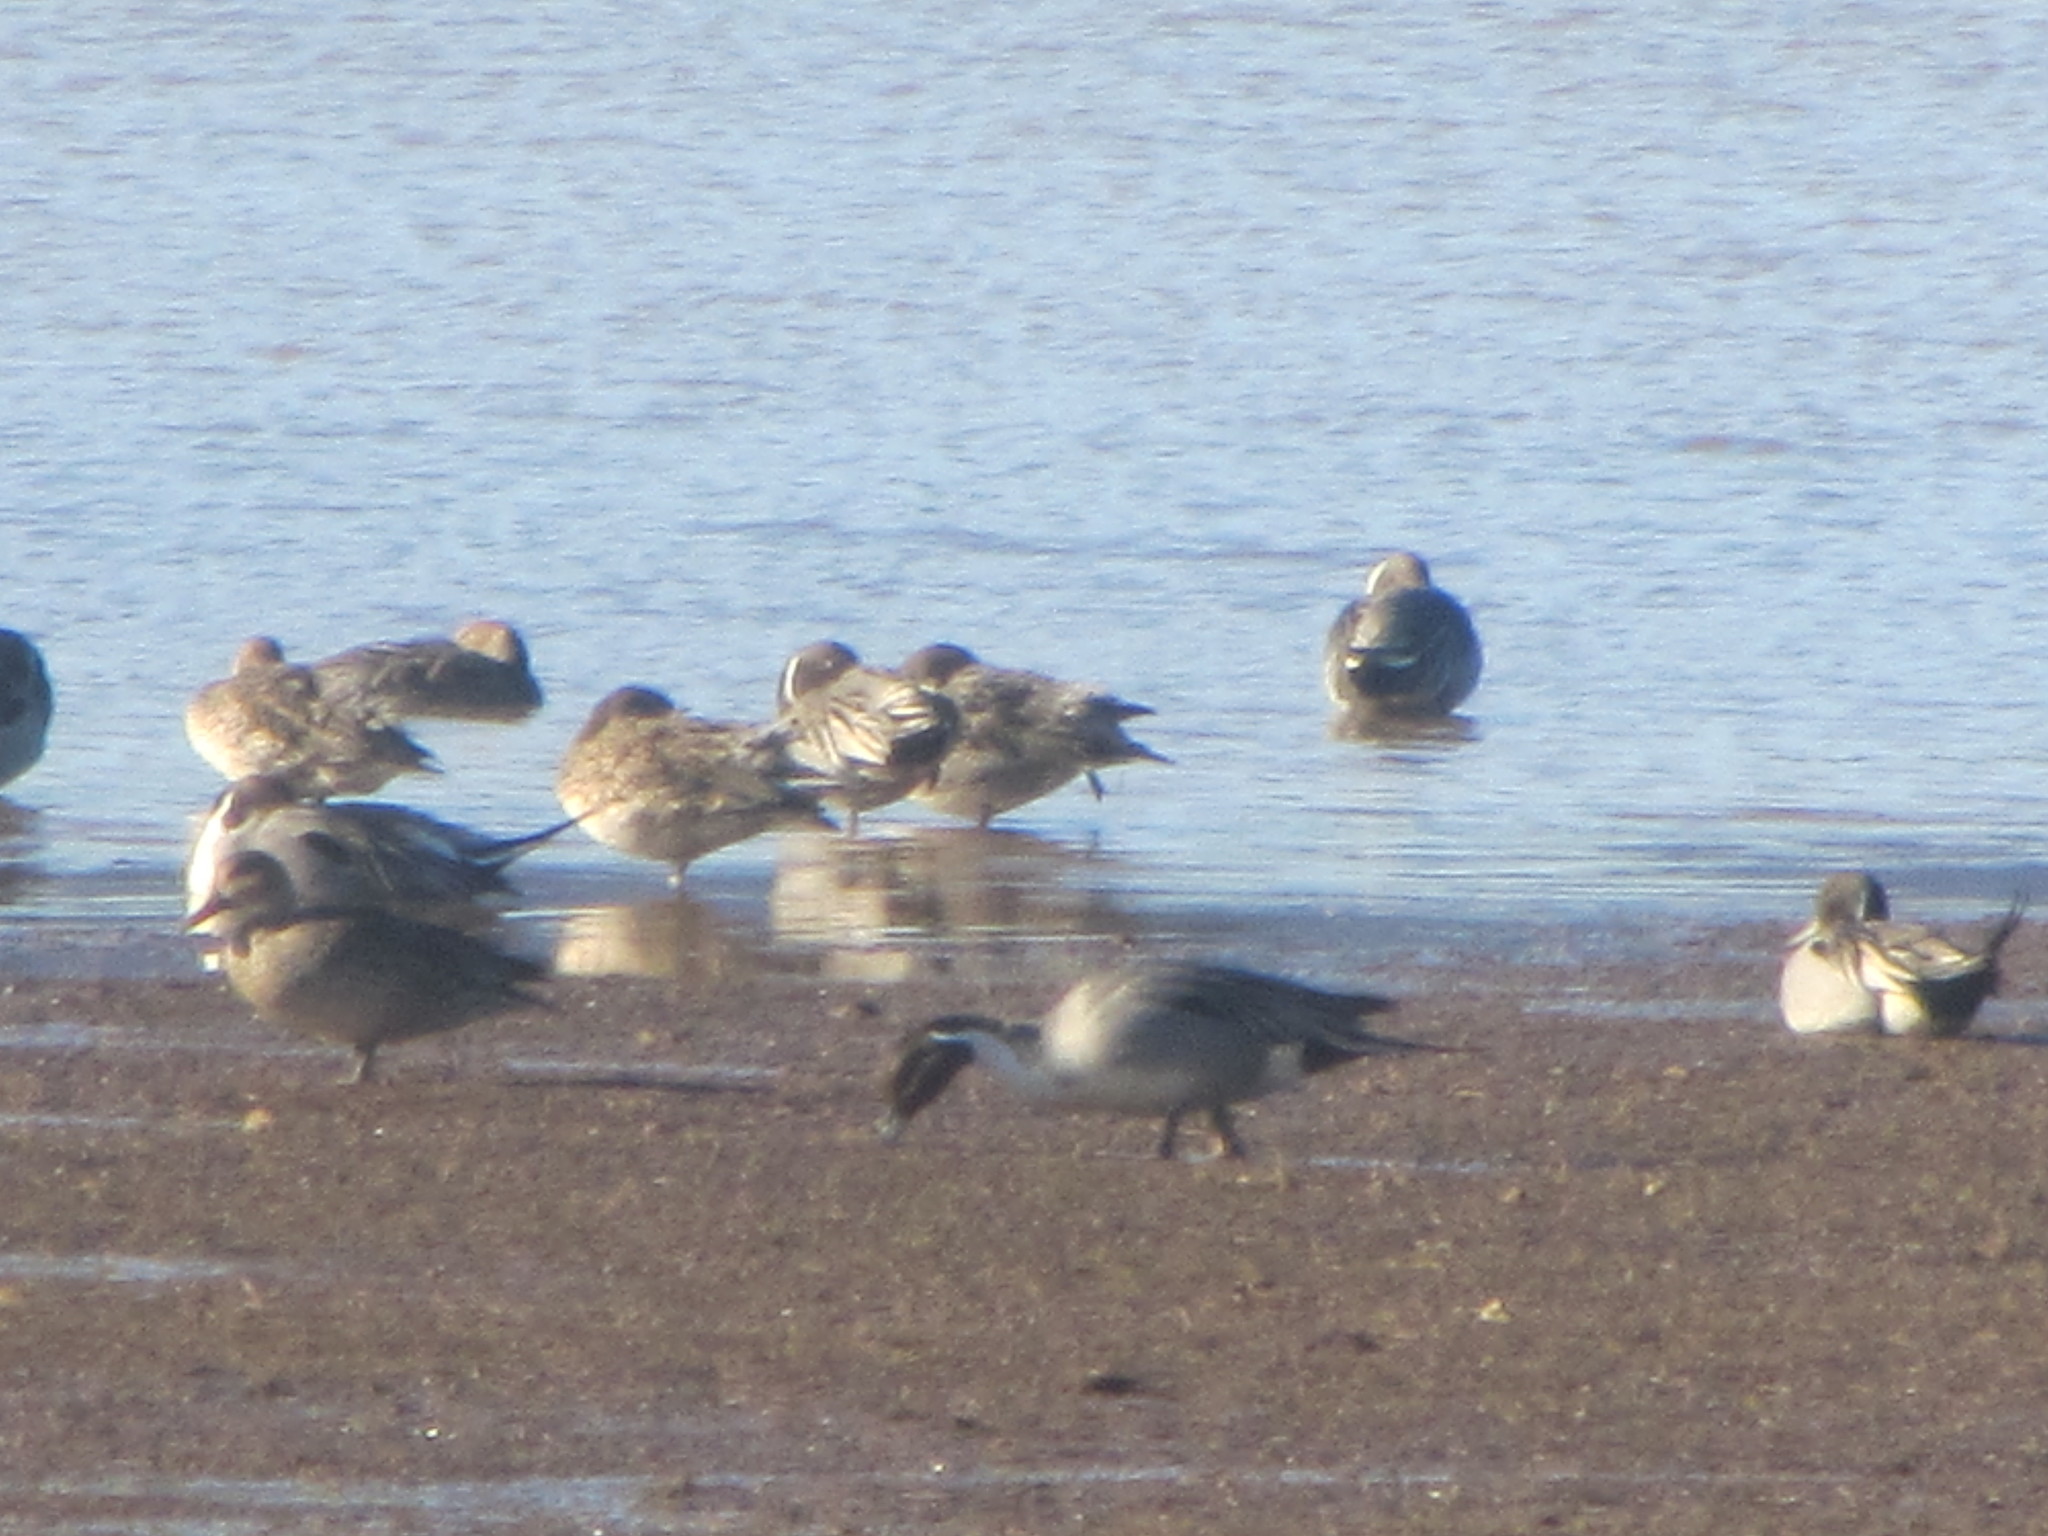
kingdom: Animalia
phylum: Chordata
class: Aves
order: Anseriformes
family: Anatidae
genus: Anas
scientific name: Anas acuta
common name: Northern pintail
